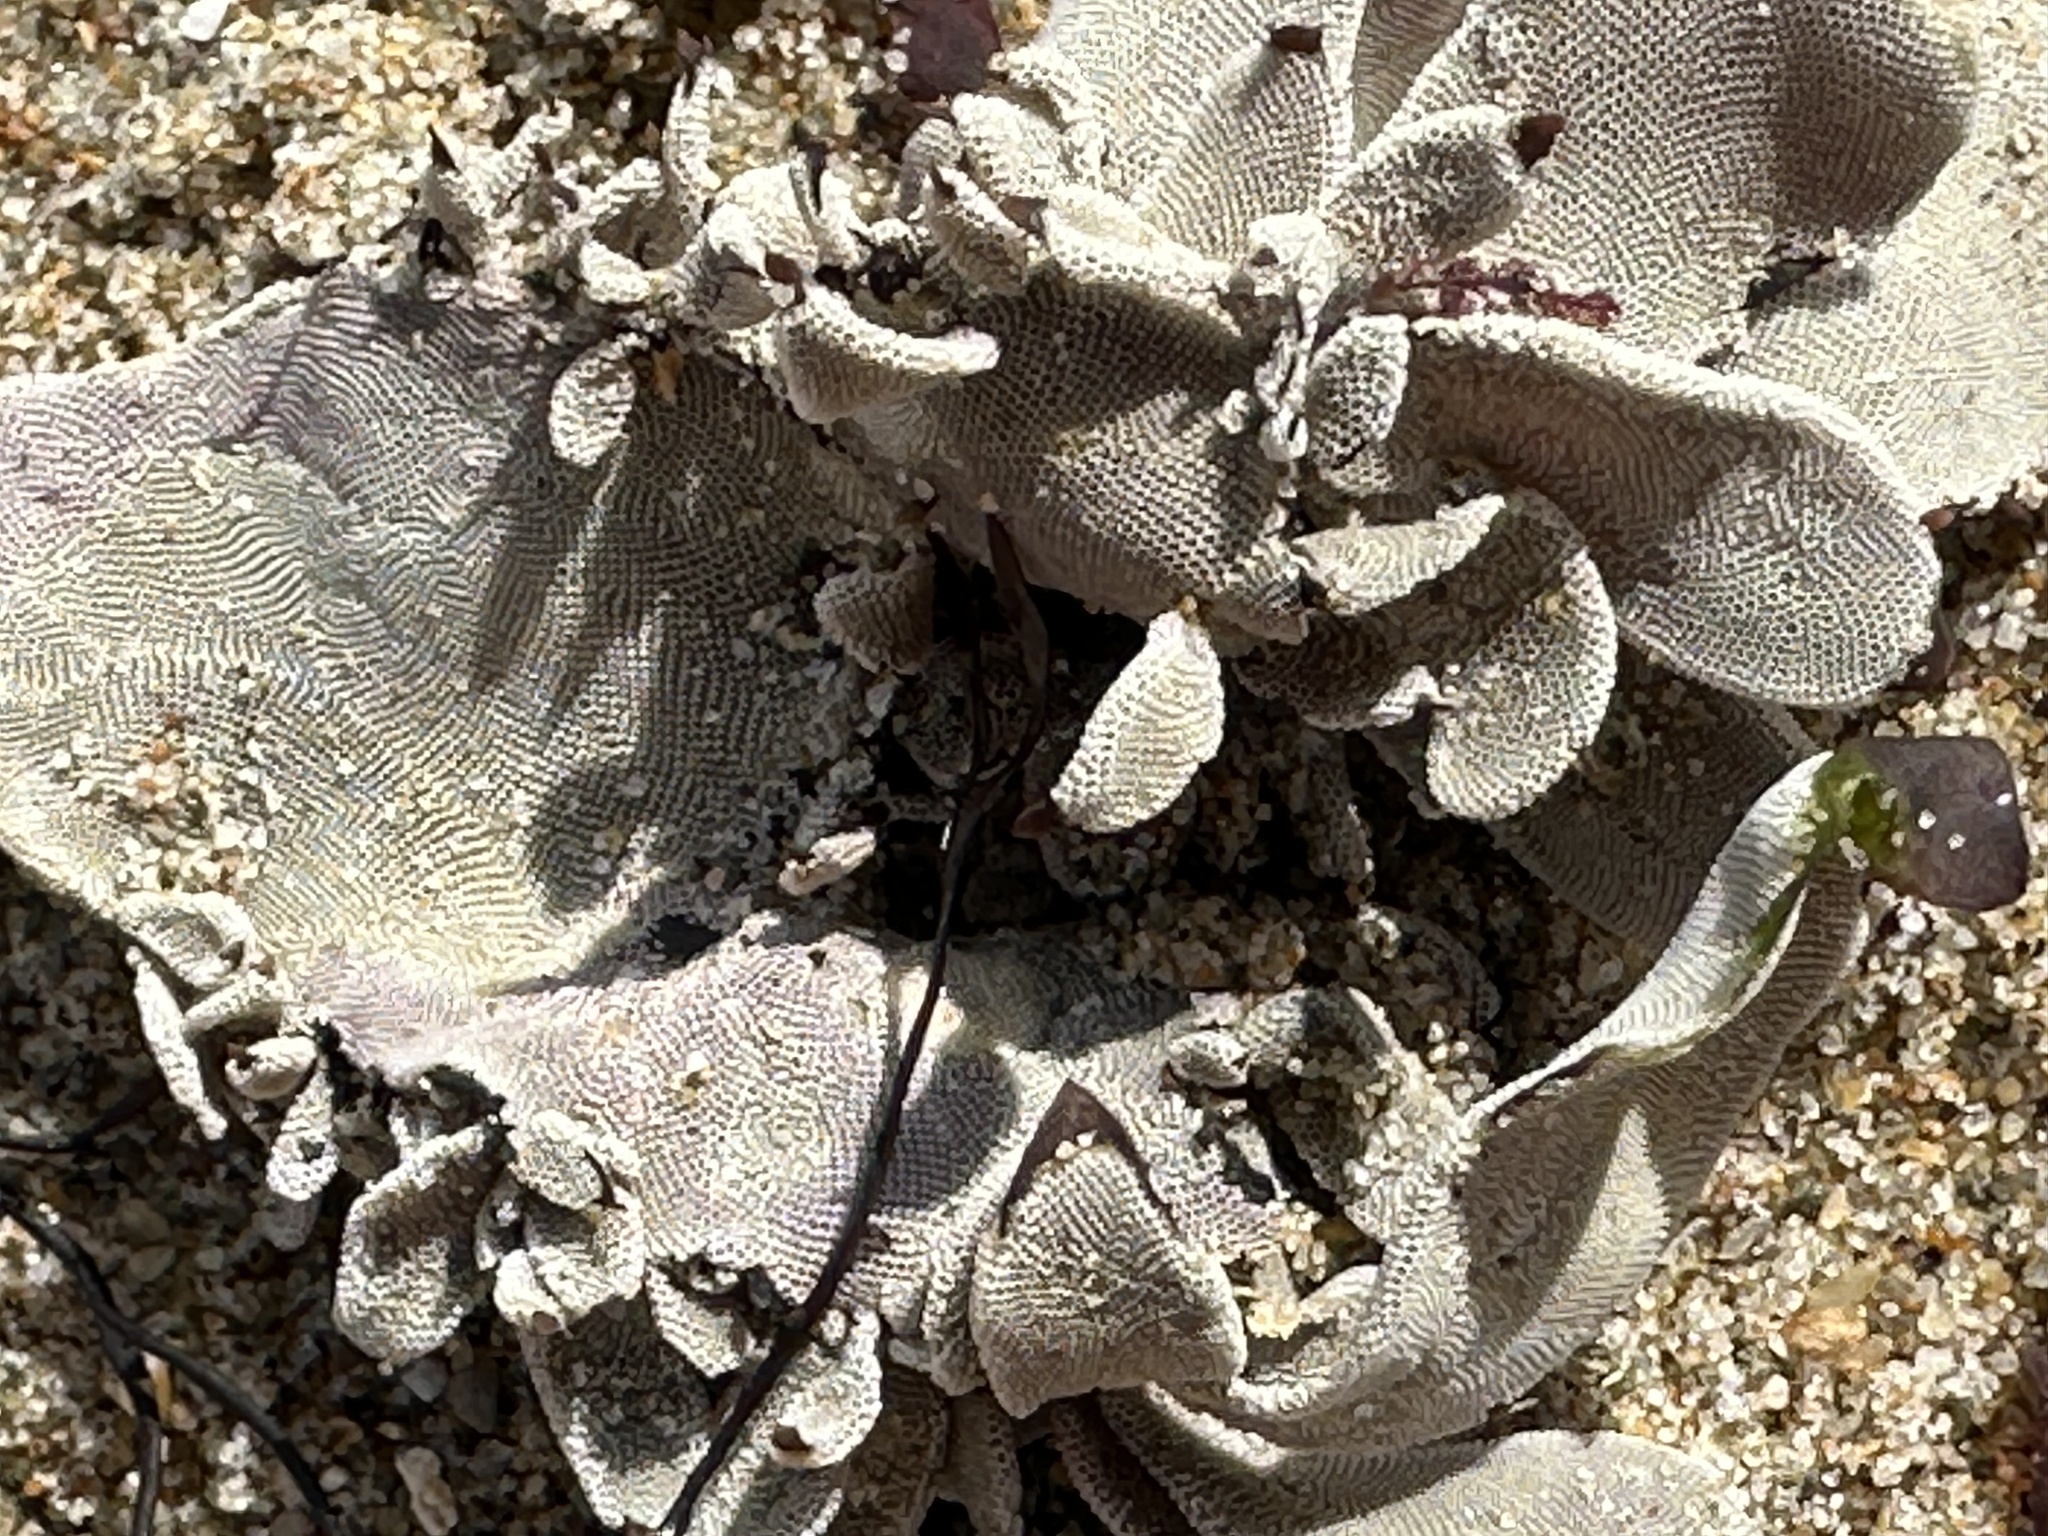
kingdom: Animalia
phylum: Bryozoa
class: Gymnolaemata
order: Cheilostomatida
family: Membraniporidae
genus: Jellyella
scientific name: Jellyella tuberculata
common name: Sargassum bryozoan
